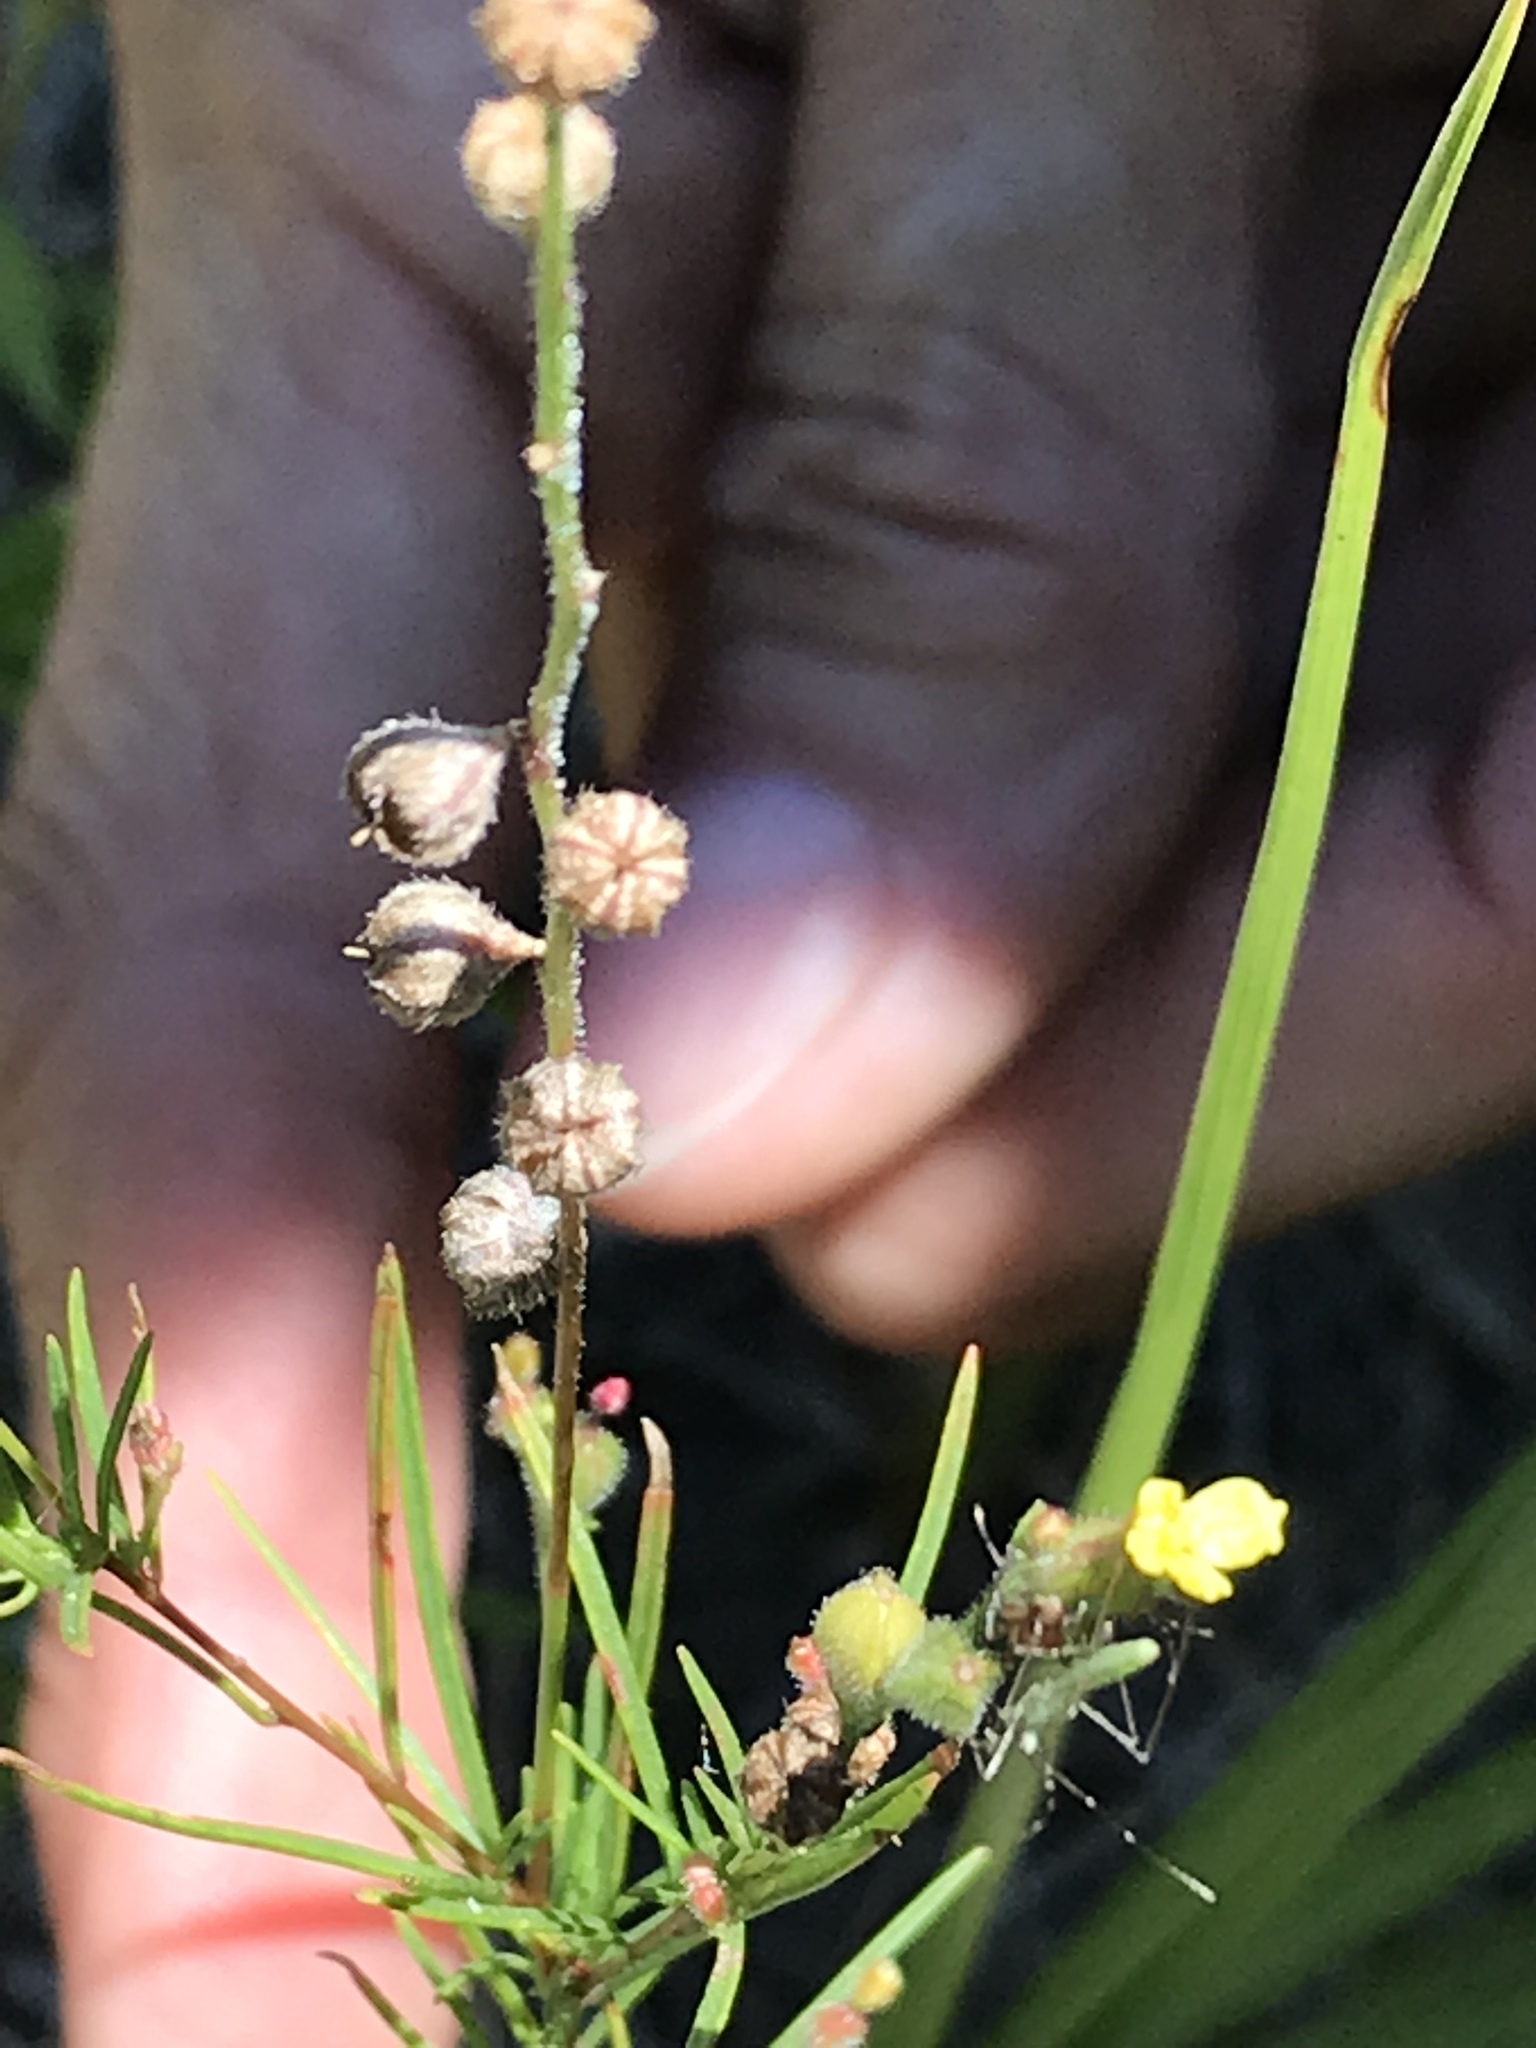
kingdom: Plantae
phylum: Tracheophyta
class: Magnoliopsida
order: Myrtales
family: Onagraceae
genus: Oenothera
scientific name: Oenothera linifolia
